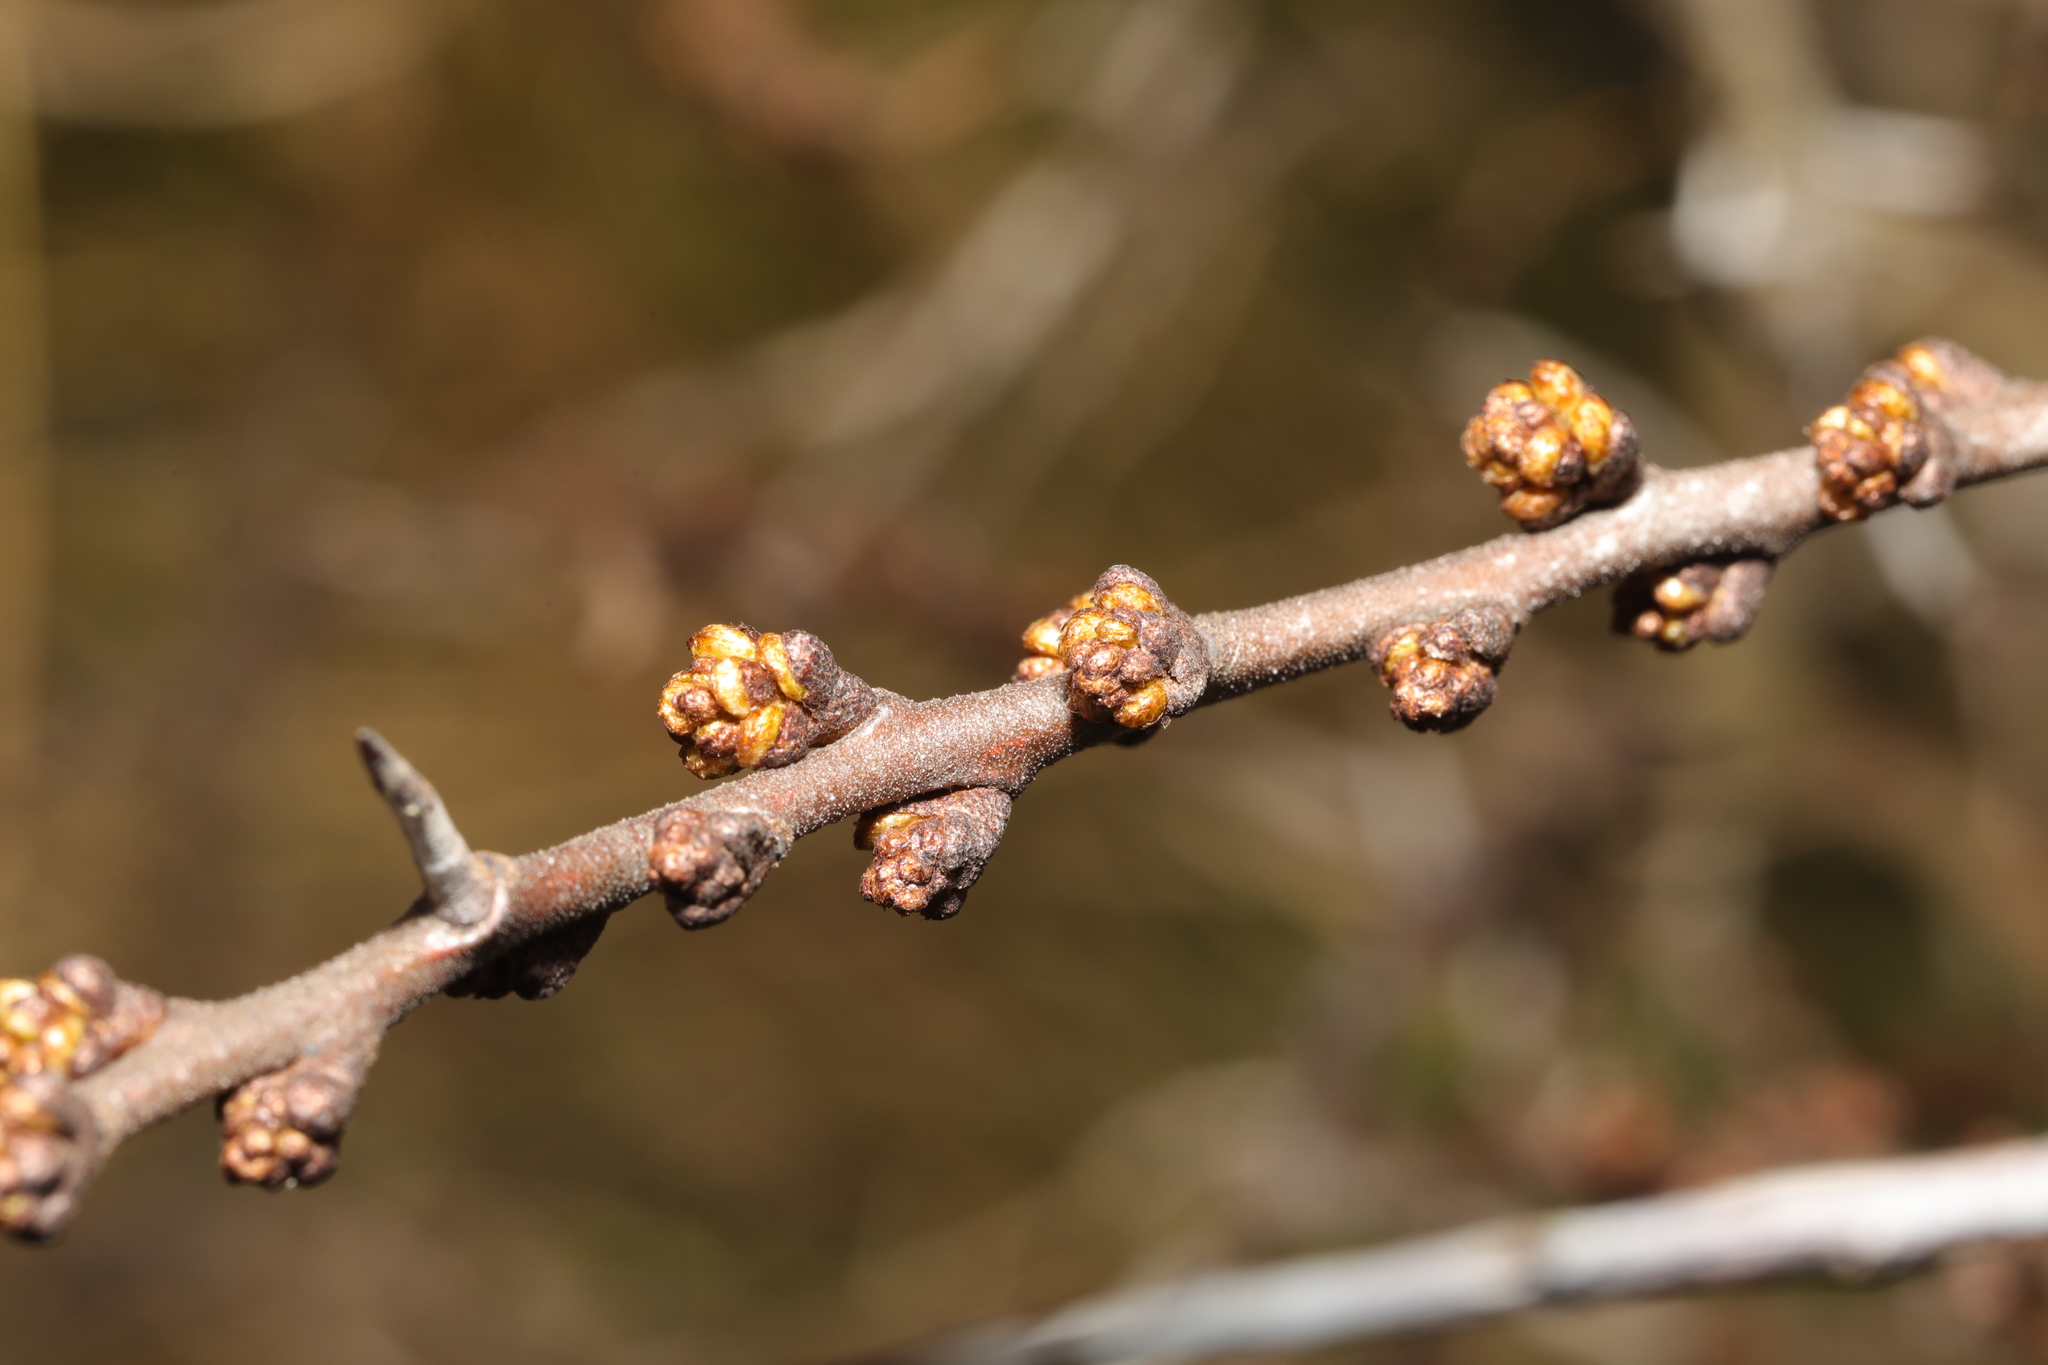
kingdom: Plantae
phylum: Tracheophyta
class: Magnoliopsida
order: Rosales
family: Elaeagnaceae
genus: Hippophae
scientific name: Hippophae rhamnoides
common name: Sea-buckthorn
